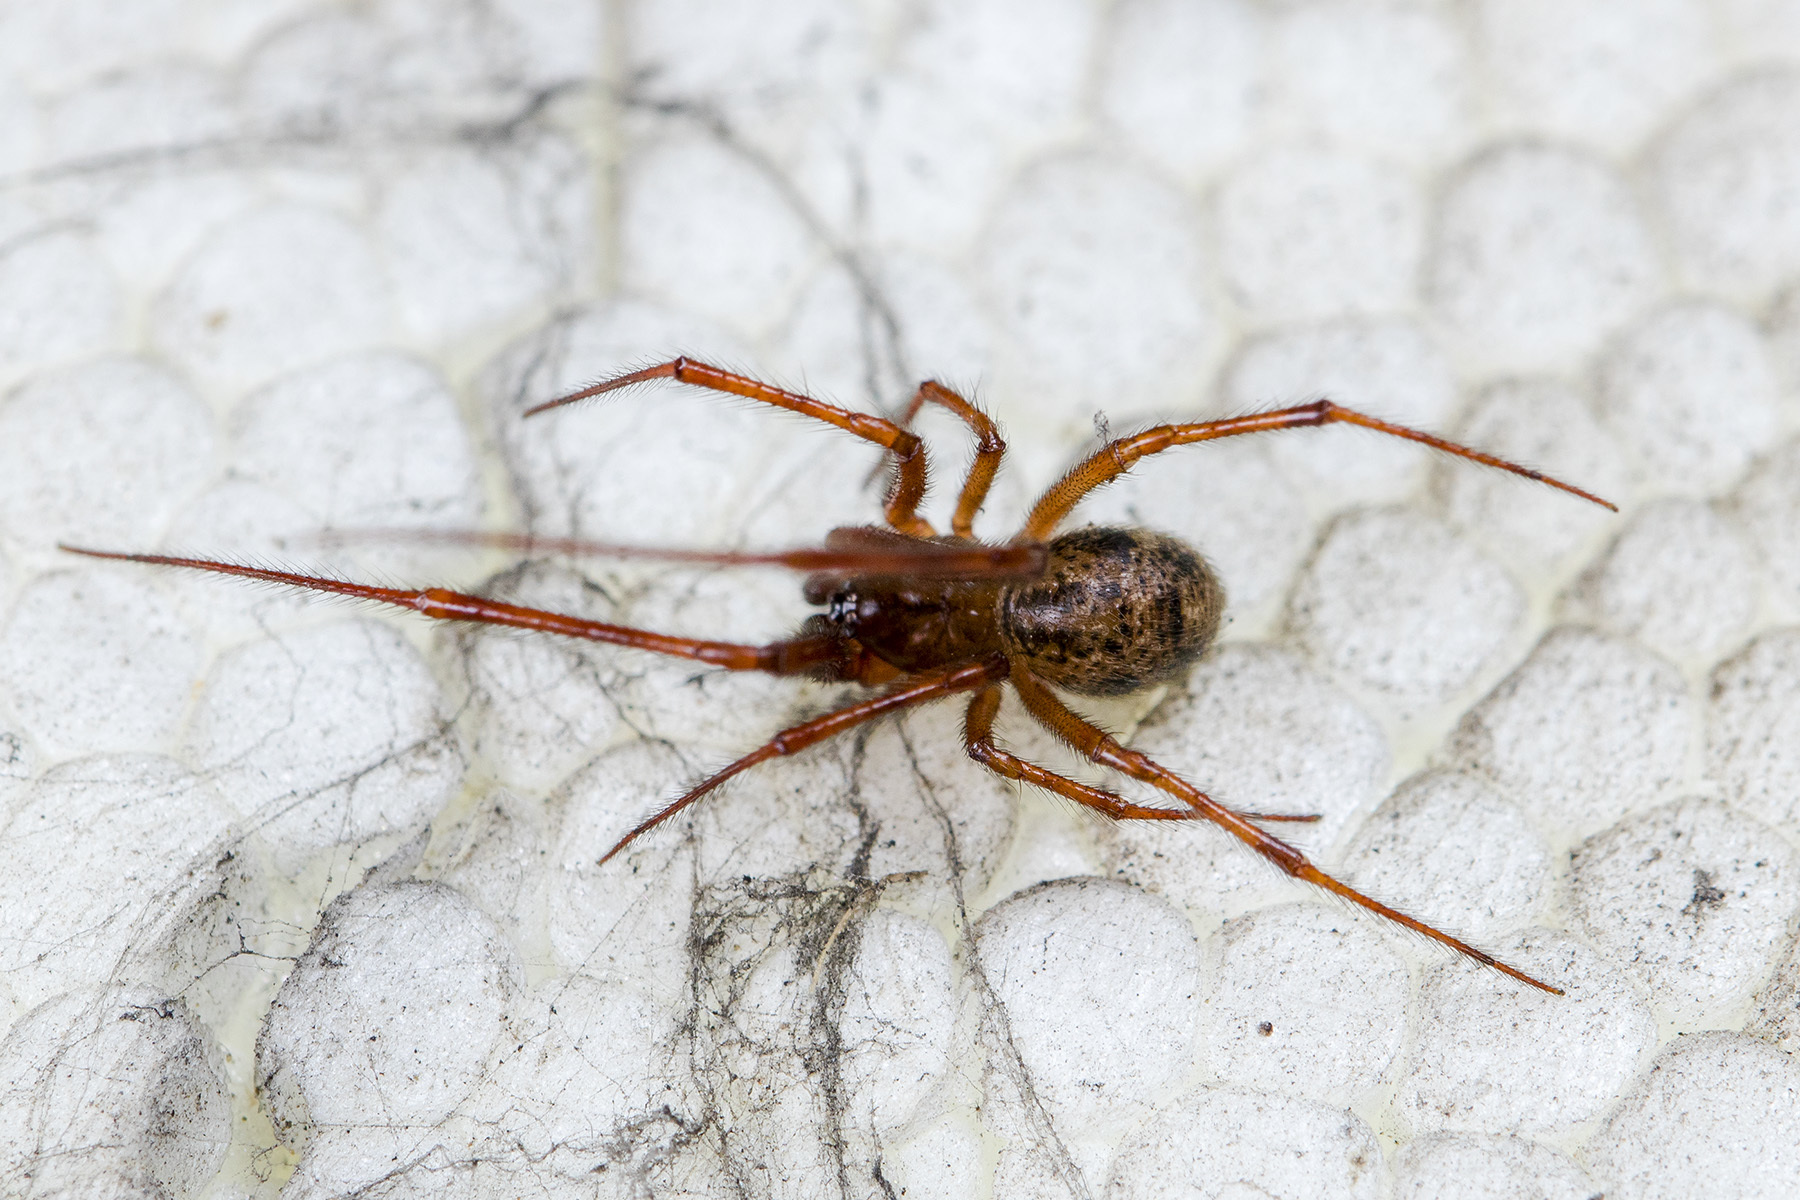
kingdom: Animalia
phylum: Arthropoda
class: Arachnida
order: Araneae
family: Theridiidae
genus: Parasteatoda
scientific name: Parasteatoda tepidariorum
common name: Common house spider
